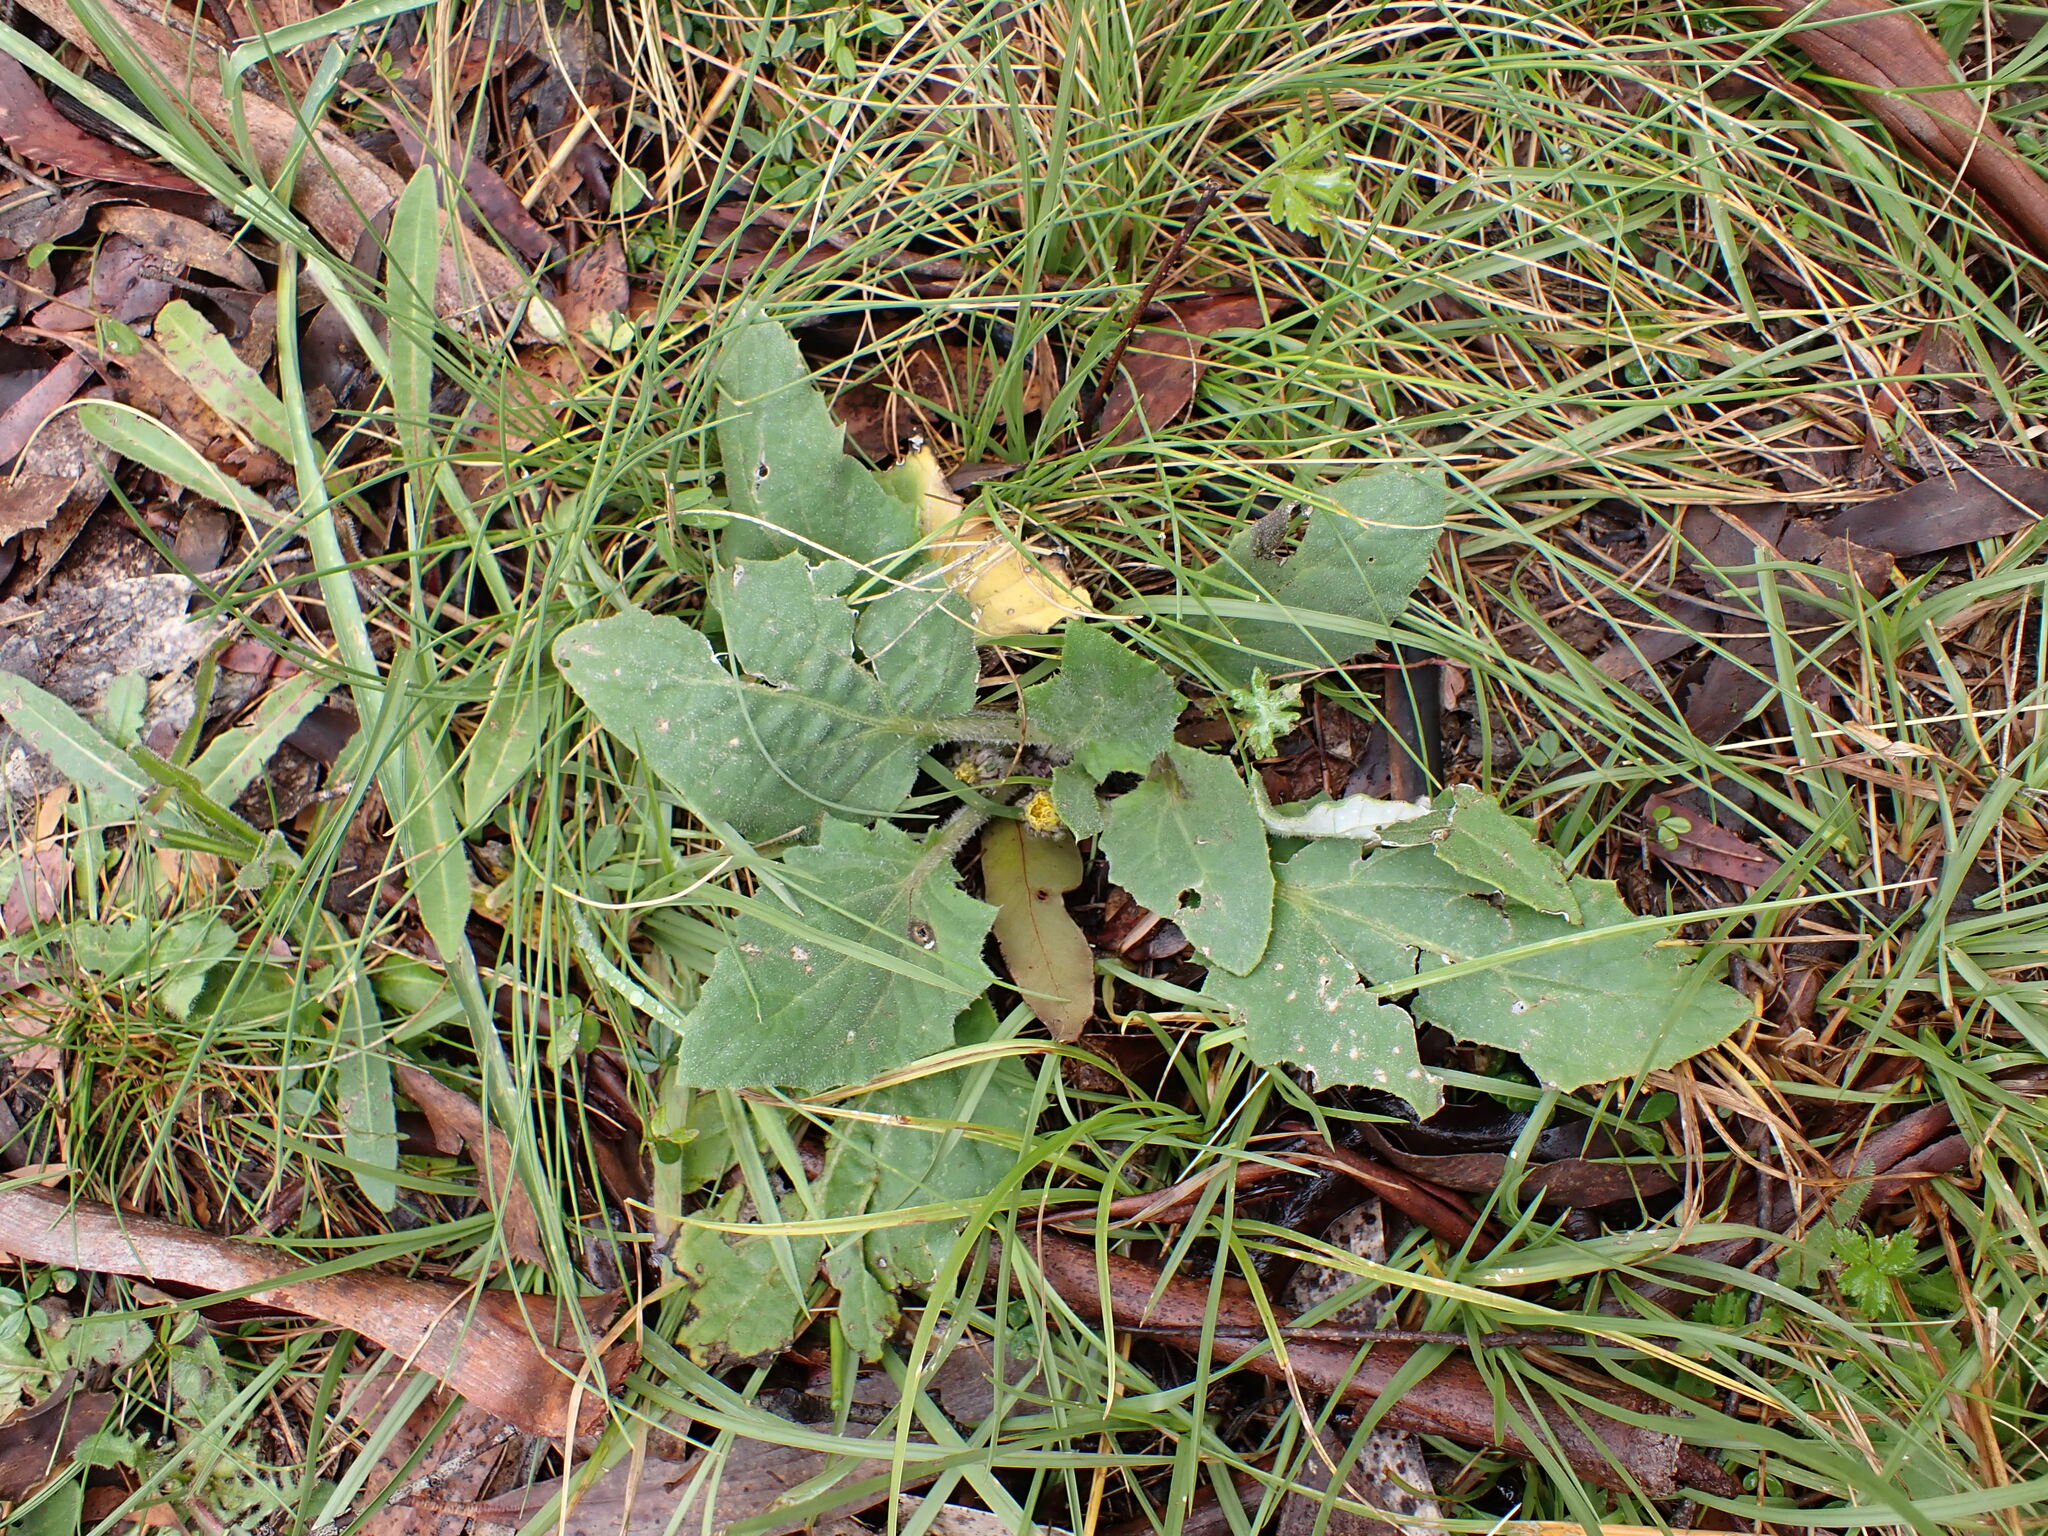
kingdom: Plantae
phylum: Tracheophyta
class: Magnoliopsida
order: Asterales
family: Asteraceae
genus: Cymbonotus
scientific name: Cymbonotus
